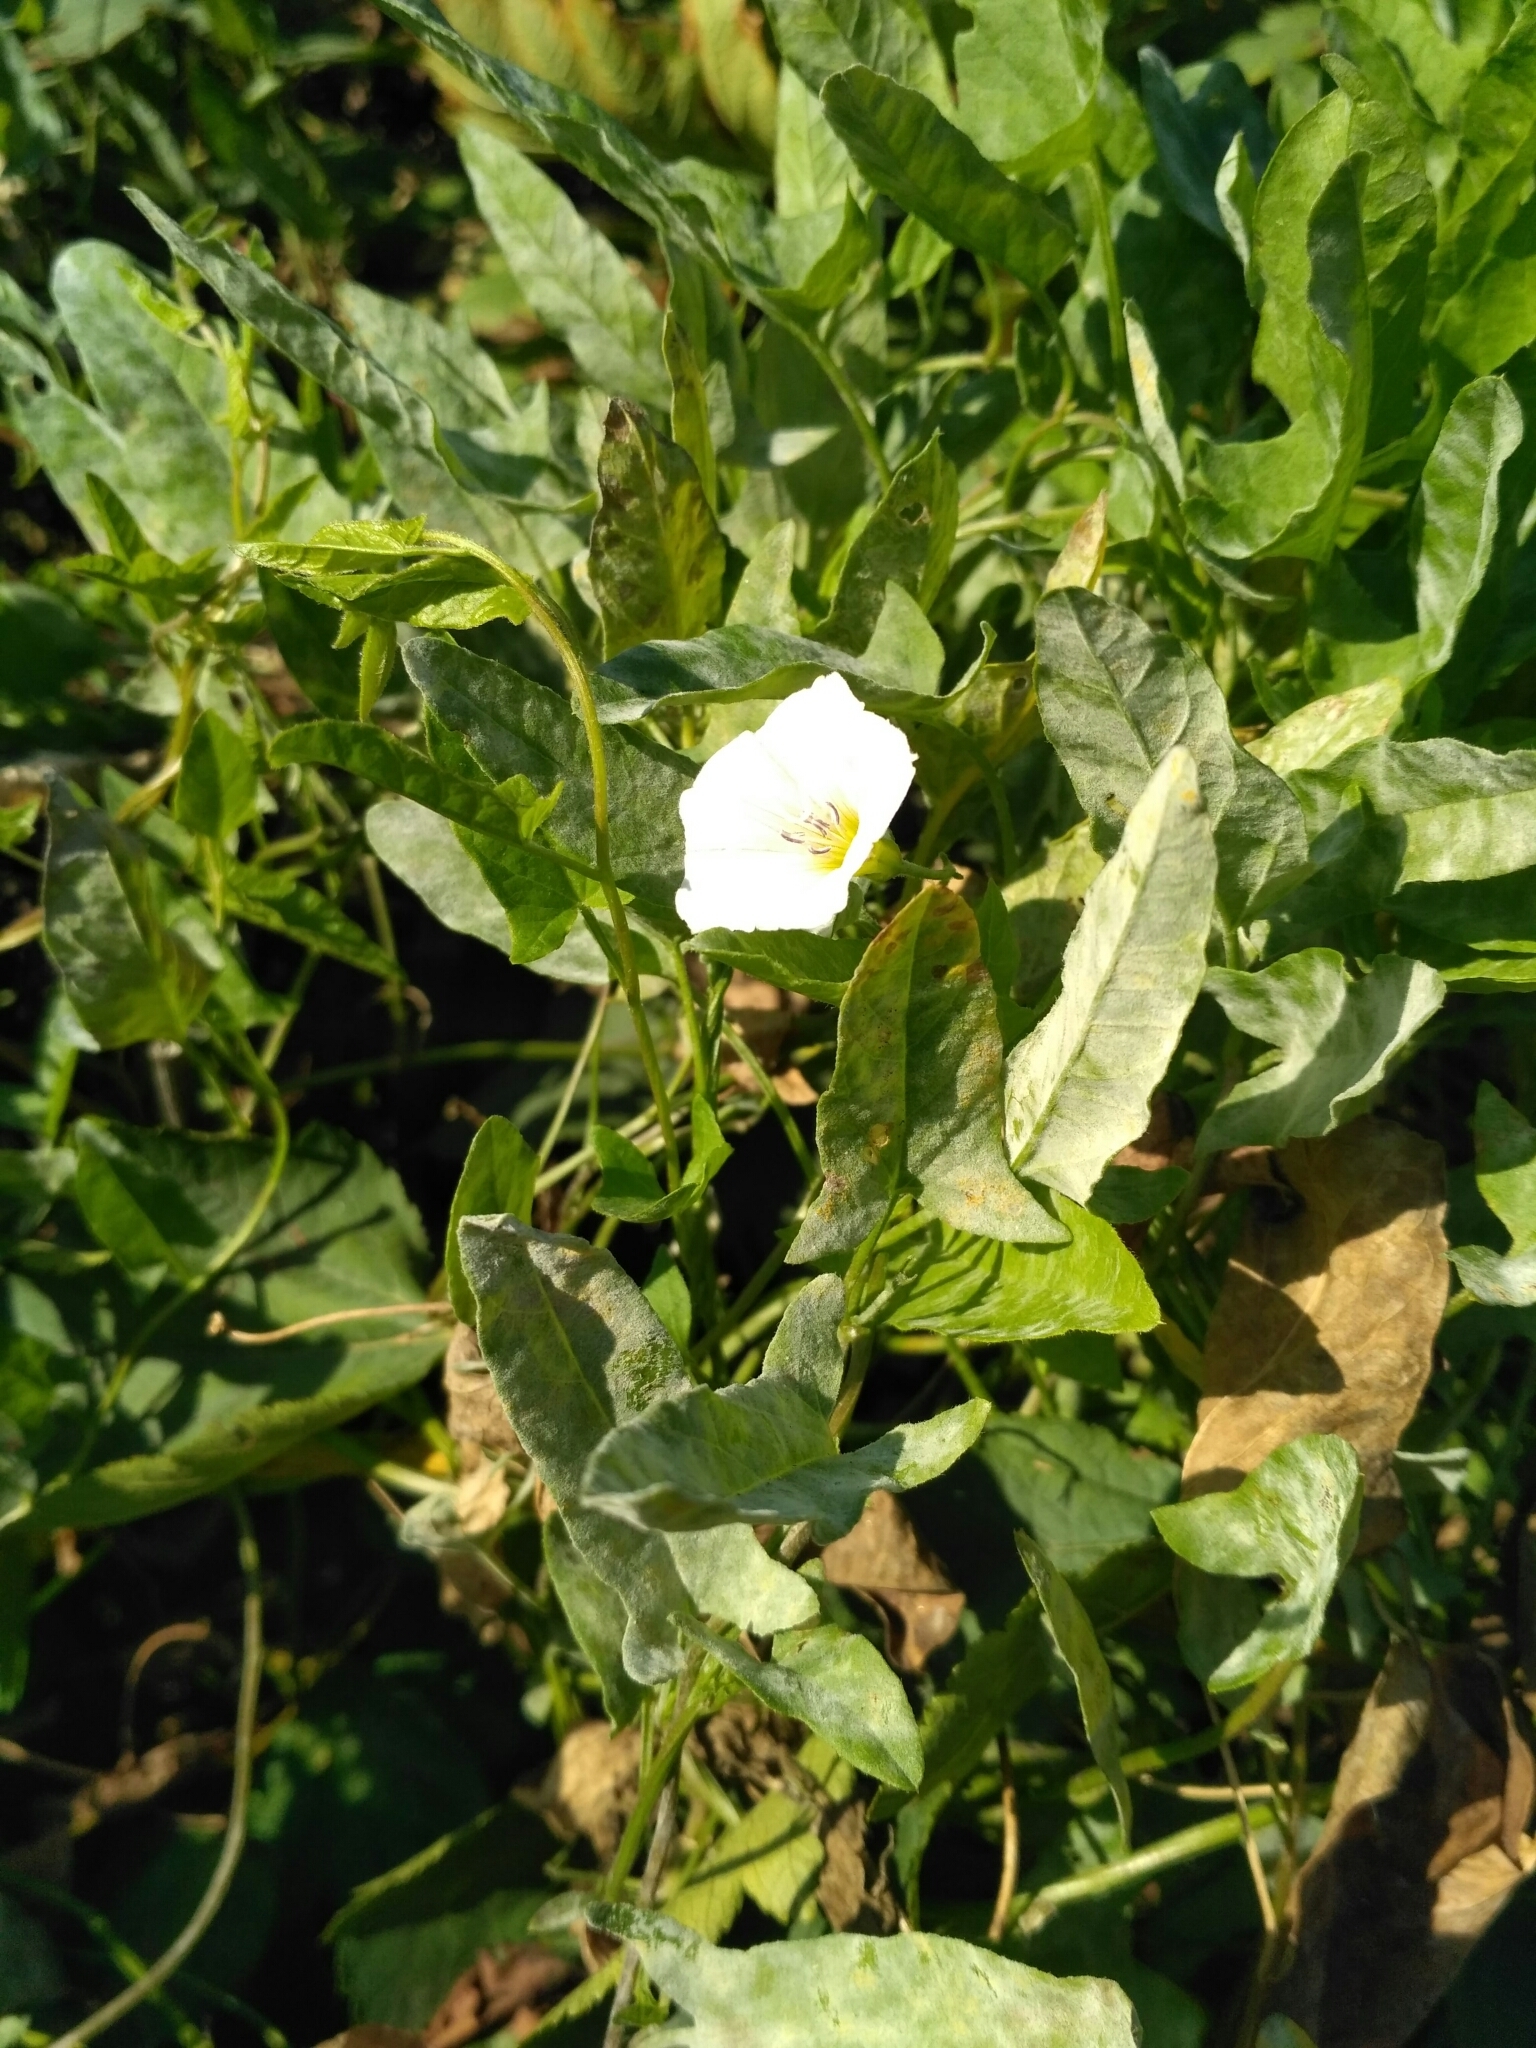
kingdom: Plantae
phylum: Tracheophyta
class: Magnoliopsida
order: Solanales
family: Convolvulaceae
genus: Convolvulus
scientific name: Convolvulus arvensis
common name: Field bindweed
